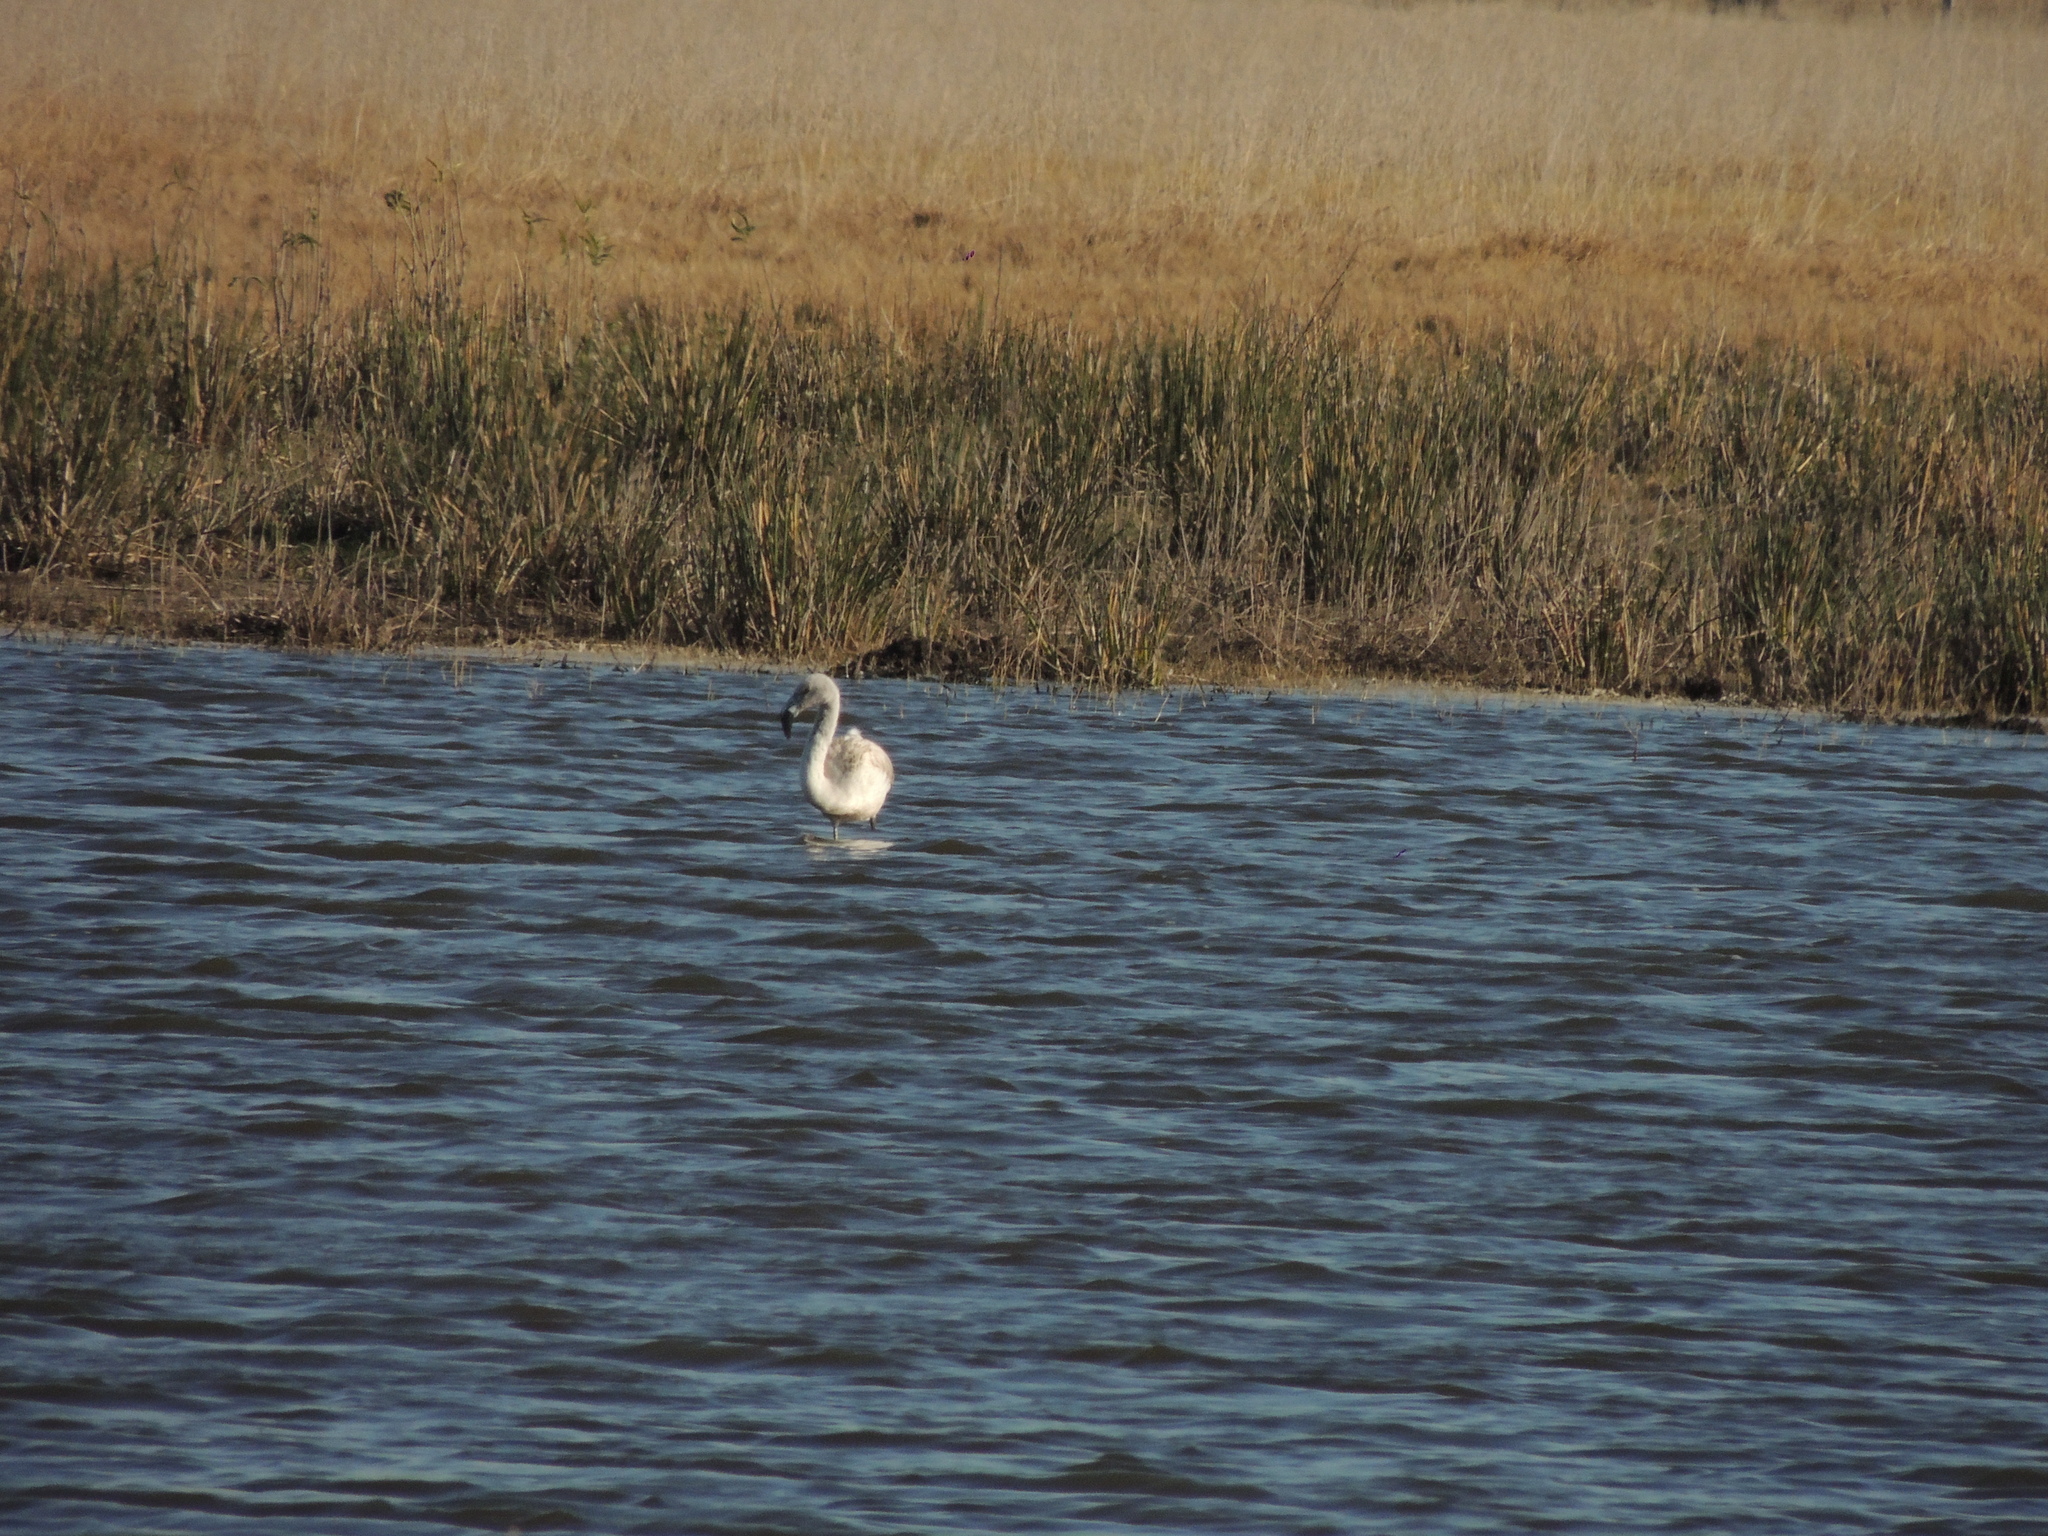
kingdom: Animalia
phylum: Chordata
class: Aves
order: Phoenicopteriformes
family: Phoenicopteridae
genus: Phoenicopterus
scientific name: Phoenicopterus chilensis
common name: Chilean flamingo
